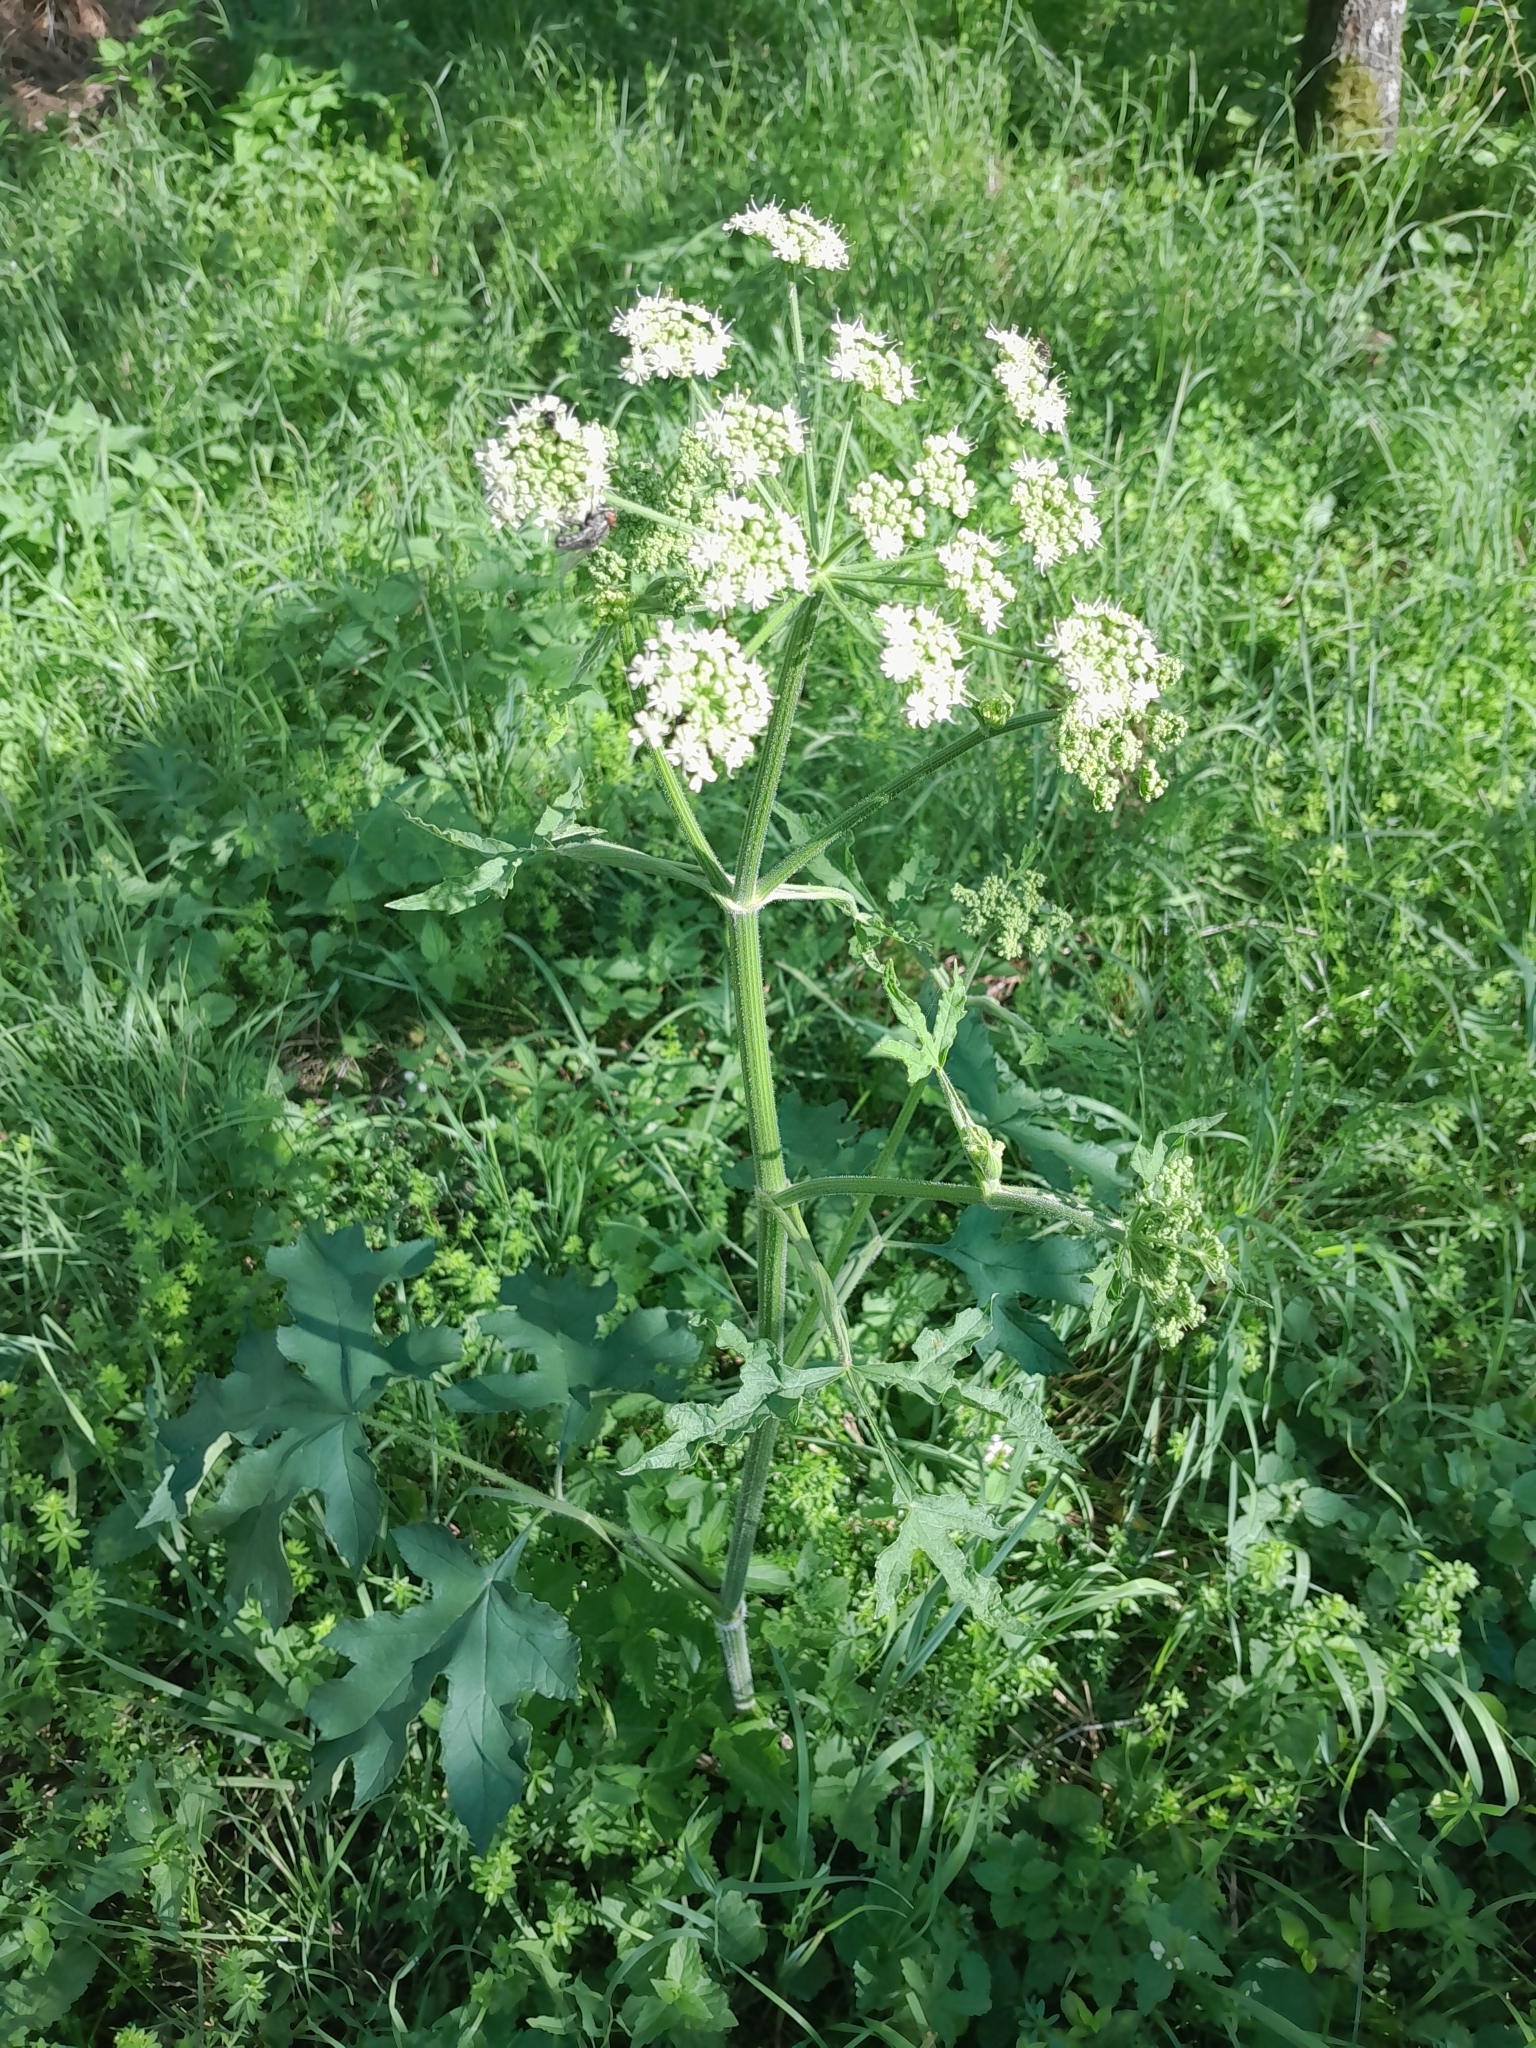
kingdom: Plantae
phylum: Tracheophyta
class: Magnoliopsida
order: Apiales
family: Apiaceae
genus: Heracleum
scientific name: Heracleum sphondylium
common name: Hogweed
